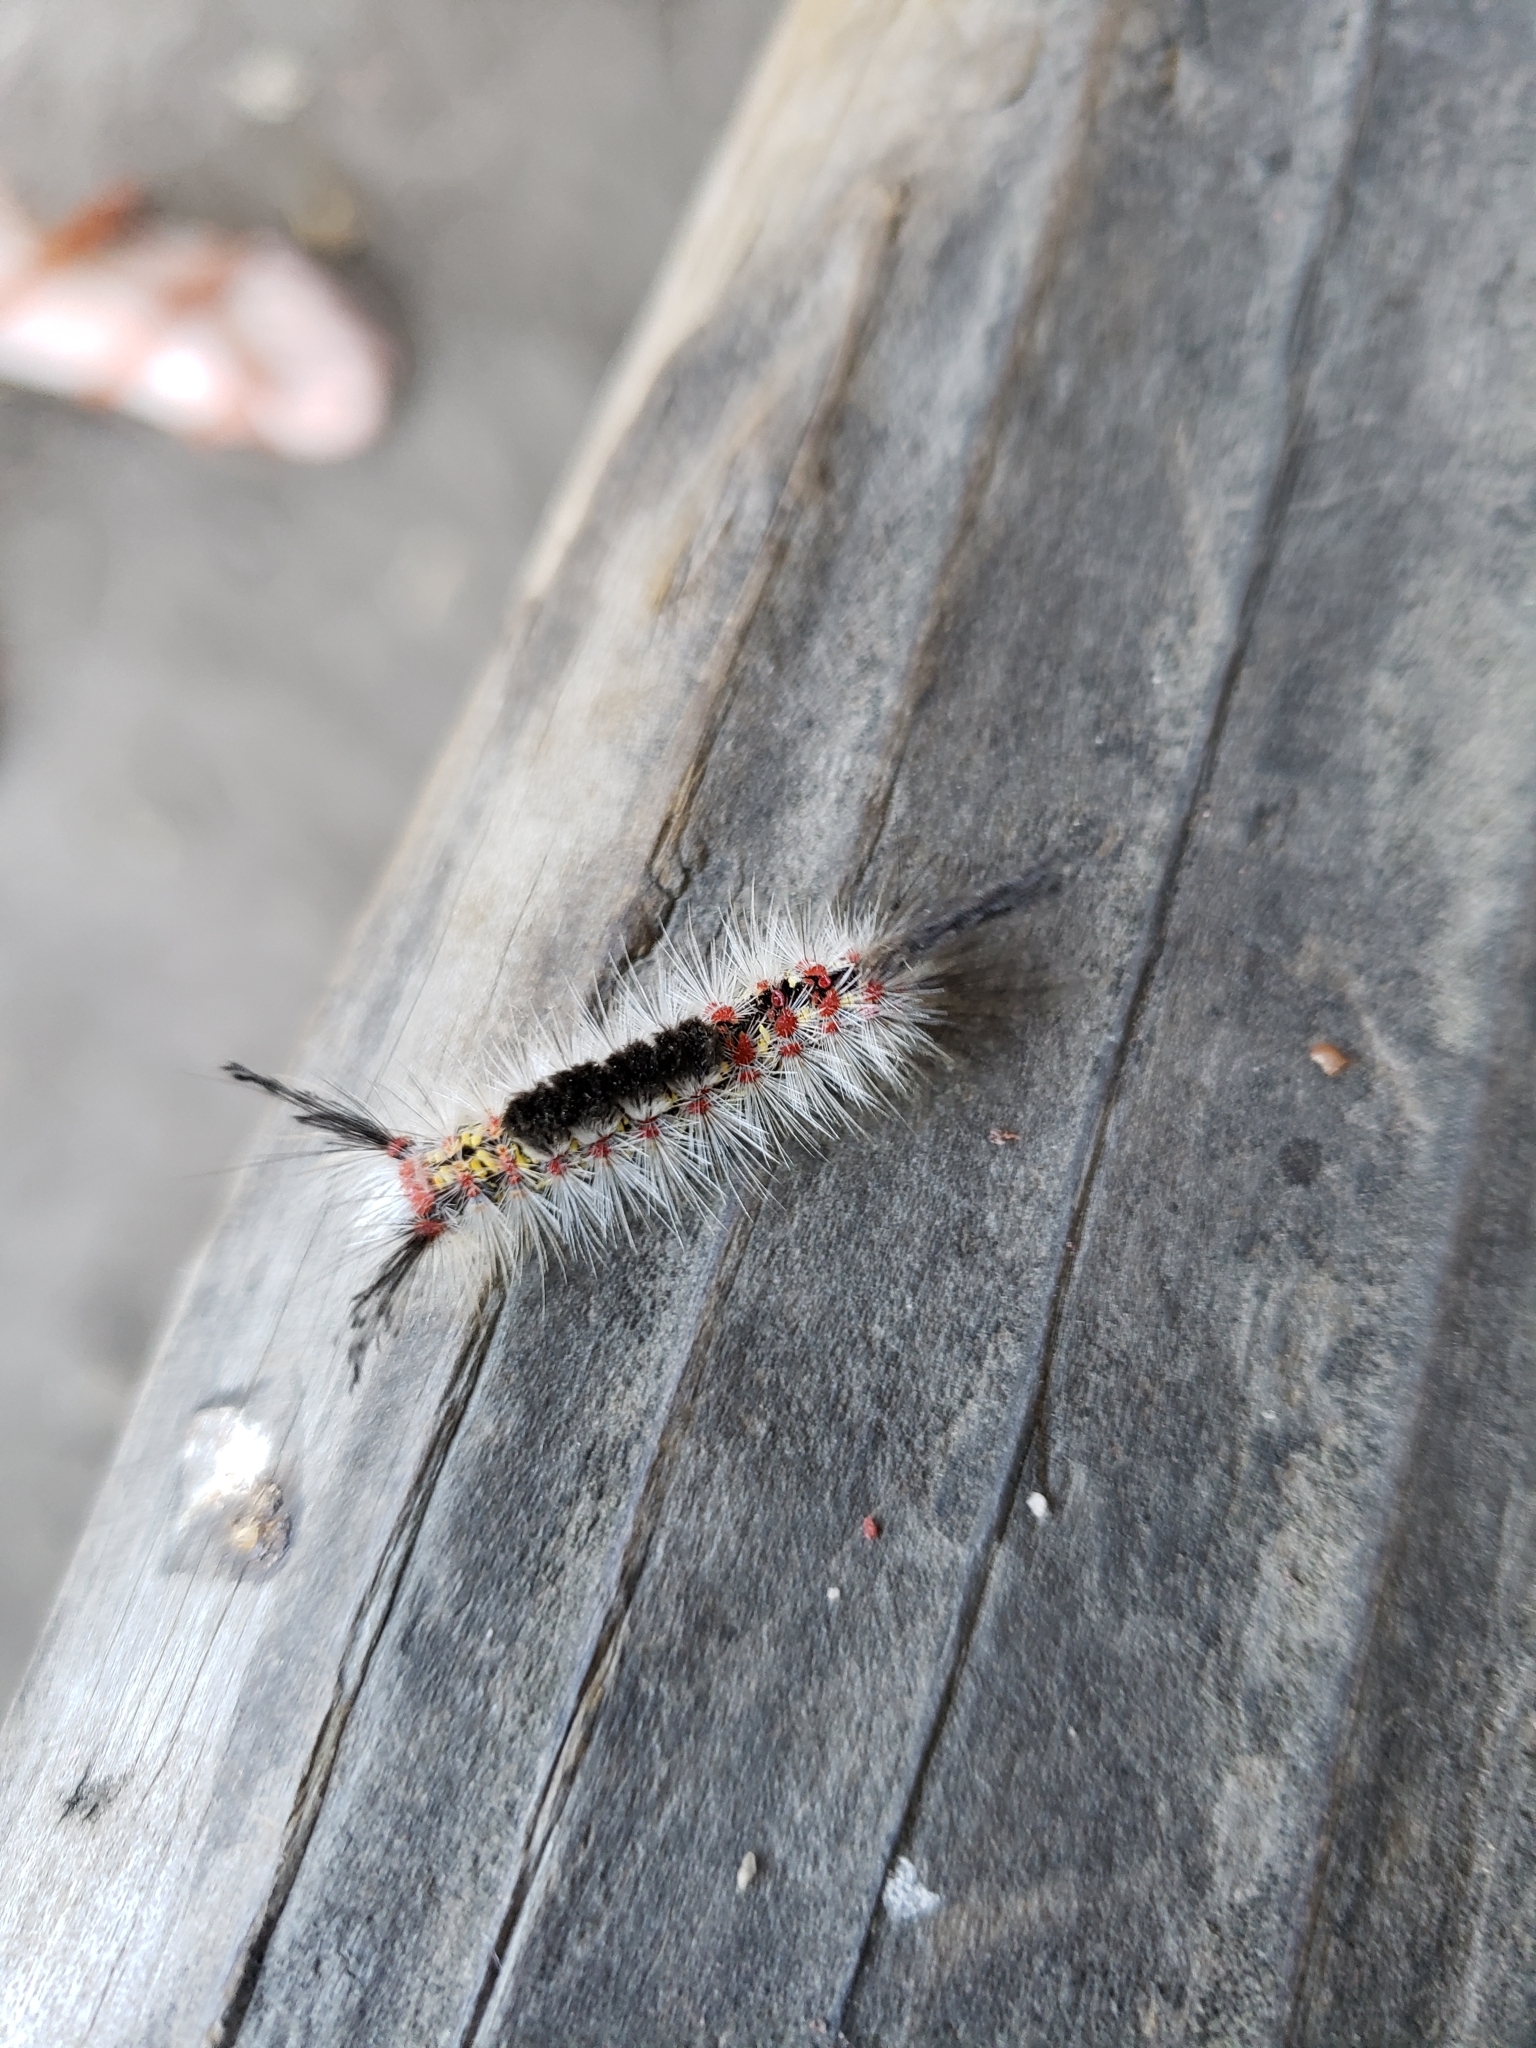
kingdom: Animalia
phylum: Arthropoda
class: Insecta
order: Lepidoptera
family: Erebidae
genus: Orgyia
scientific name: Orgyia vetusta
